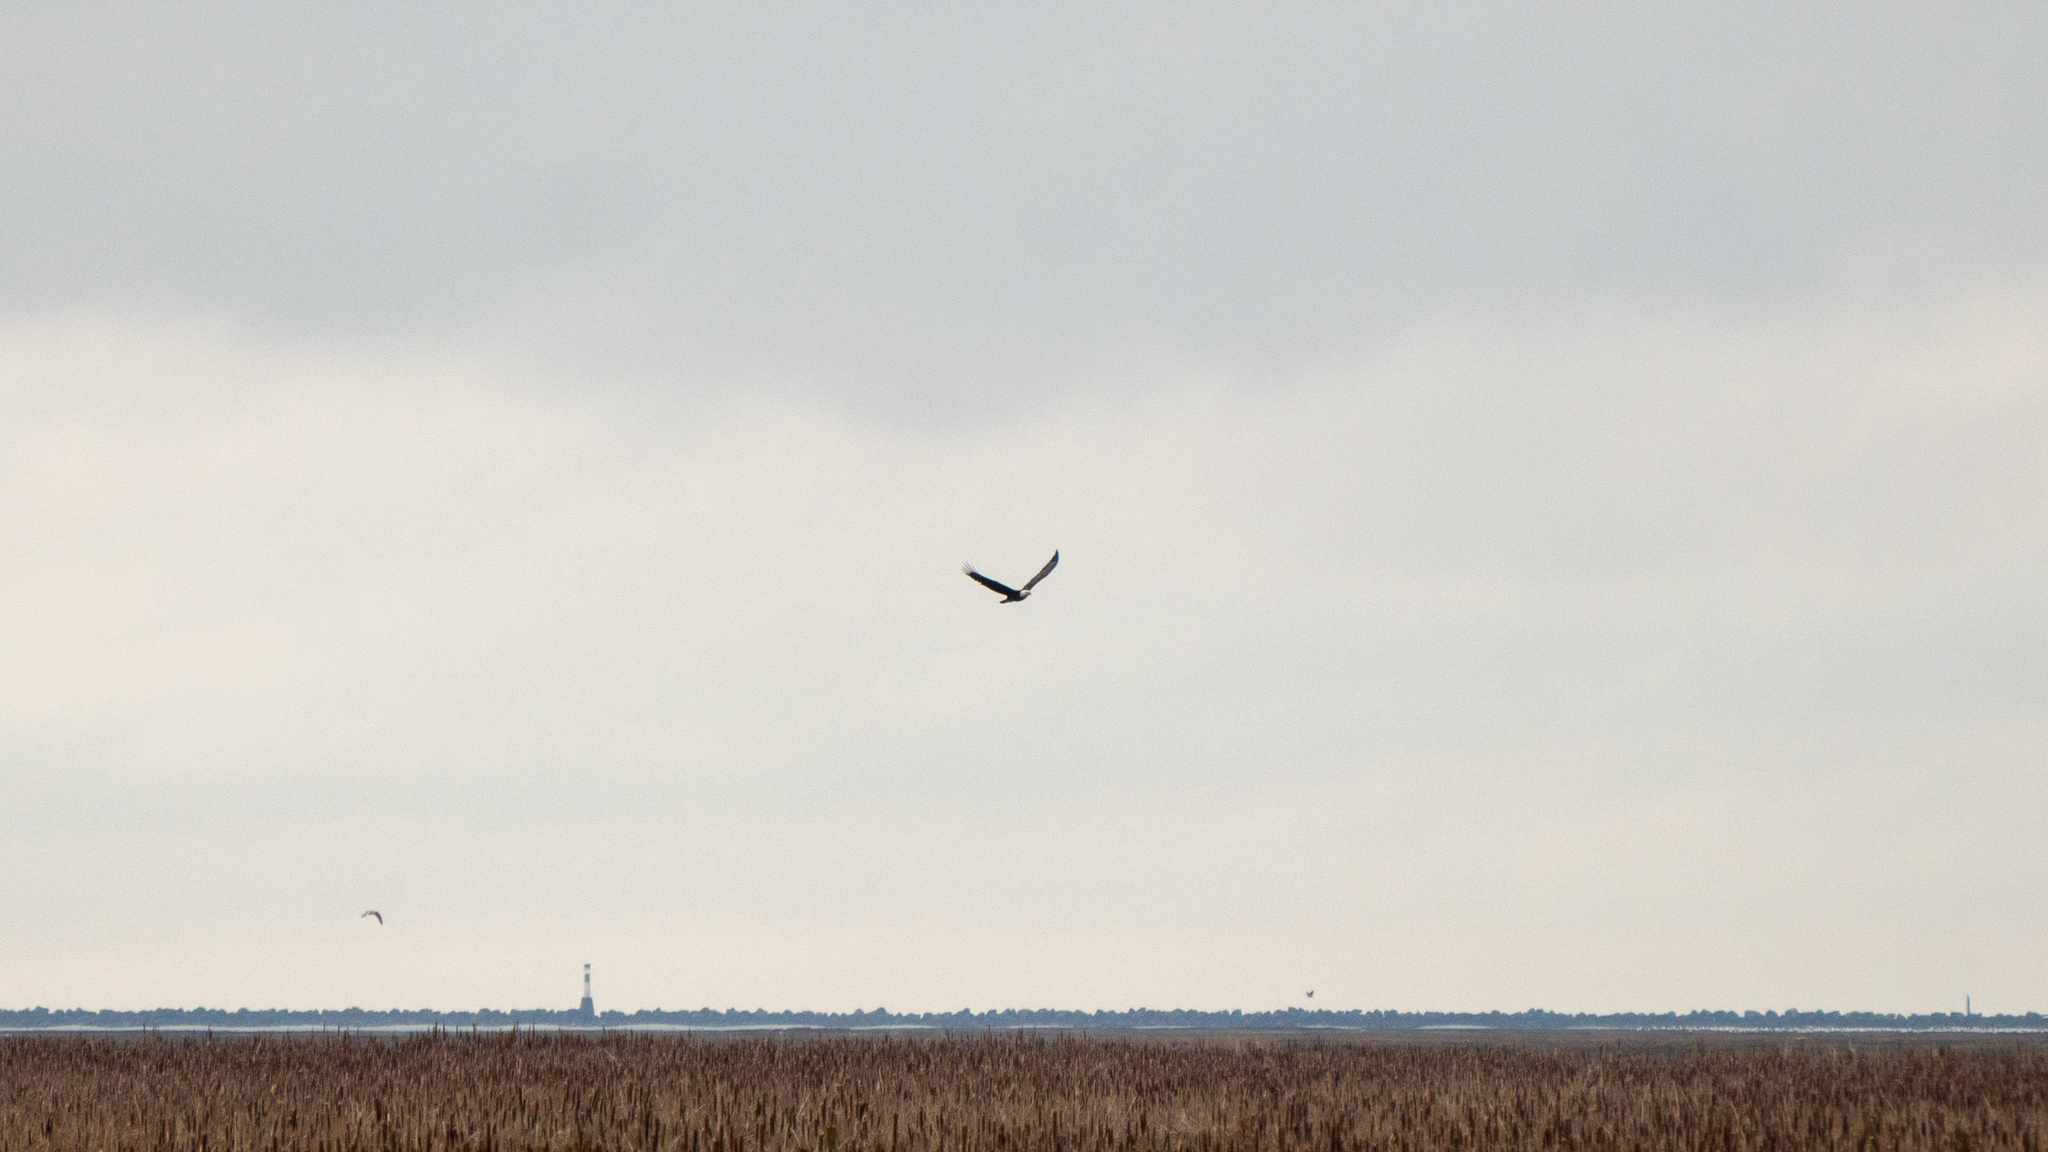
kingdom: Animalia
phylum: Chordata
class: Aves
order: Accipitriformes
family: Accipitridae
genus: Haliaeetus
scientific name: Haliaeetus leucocephalus
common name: Bald eagle
